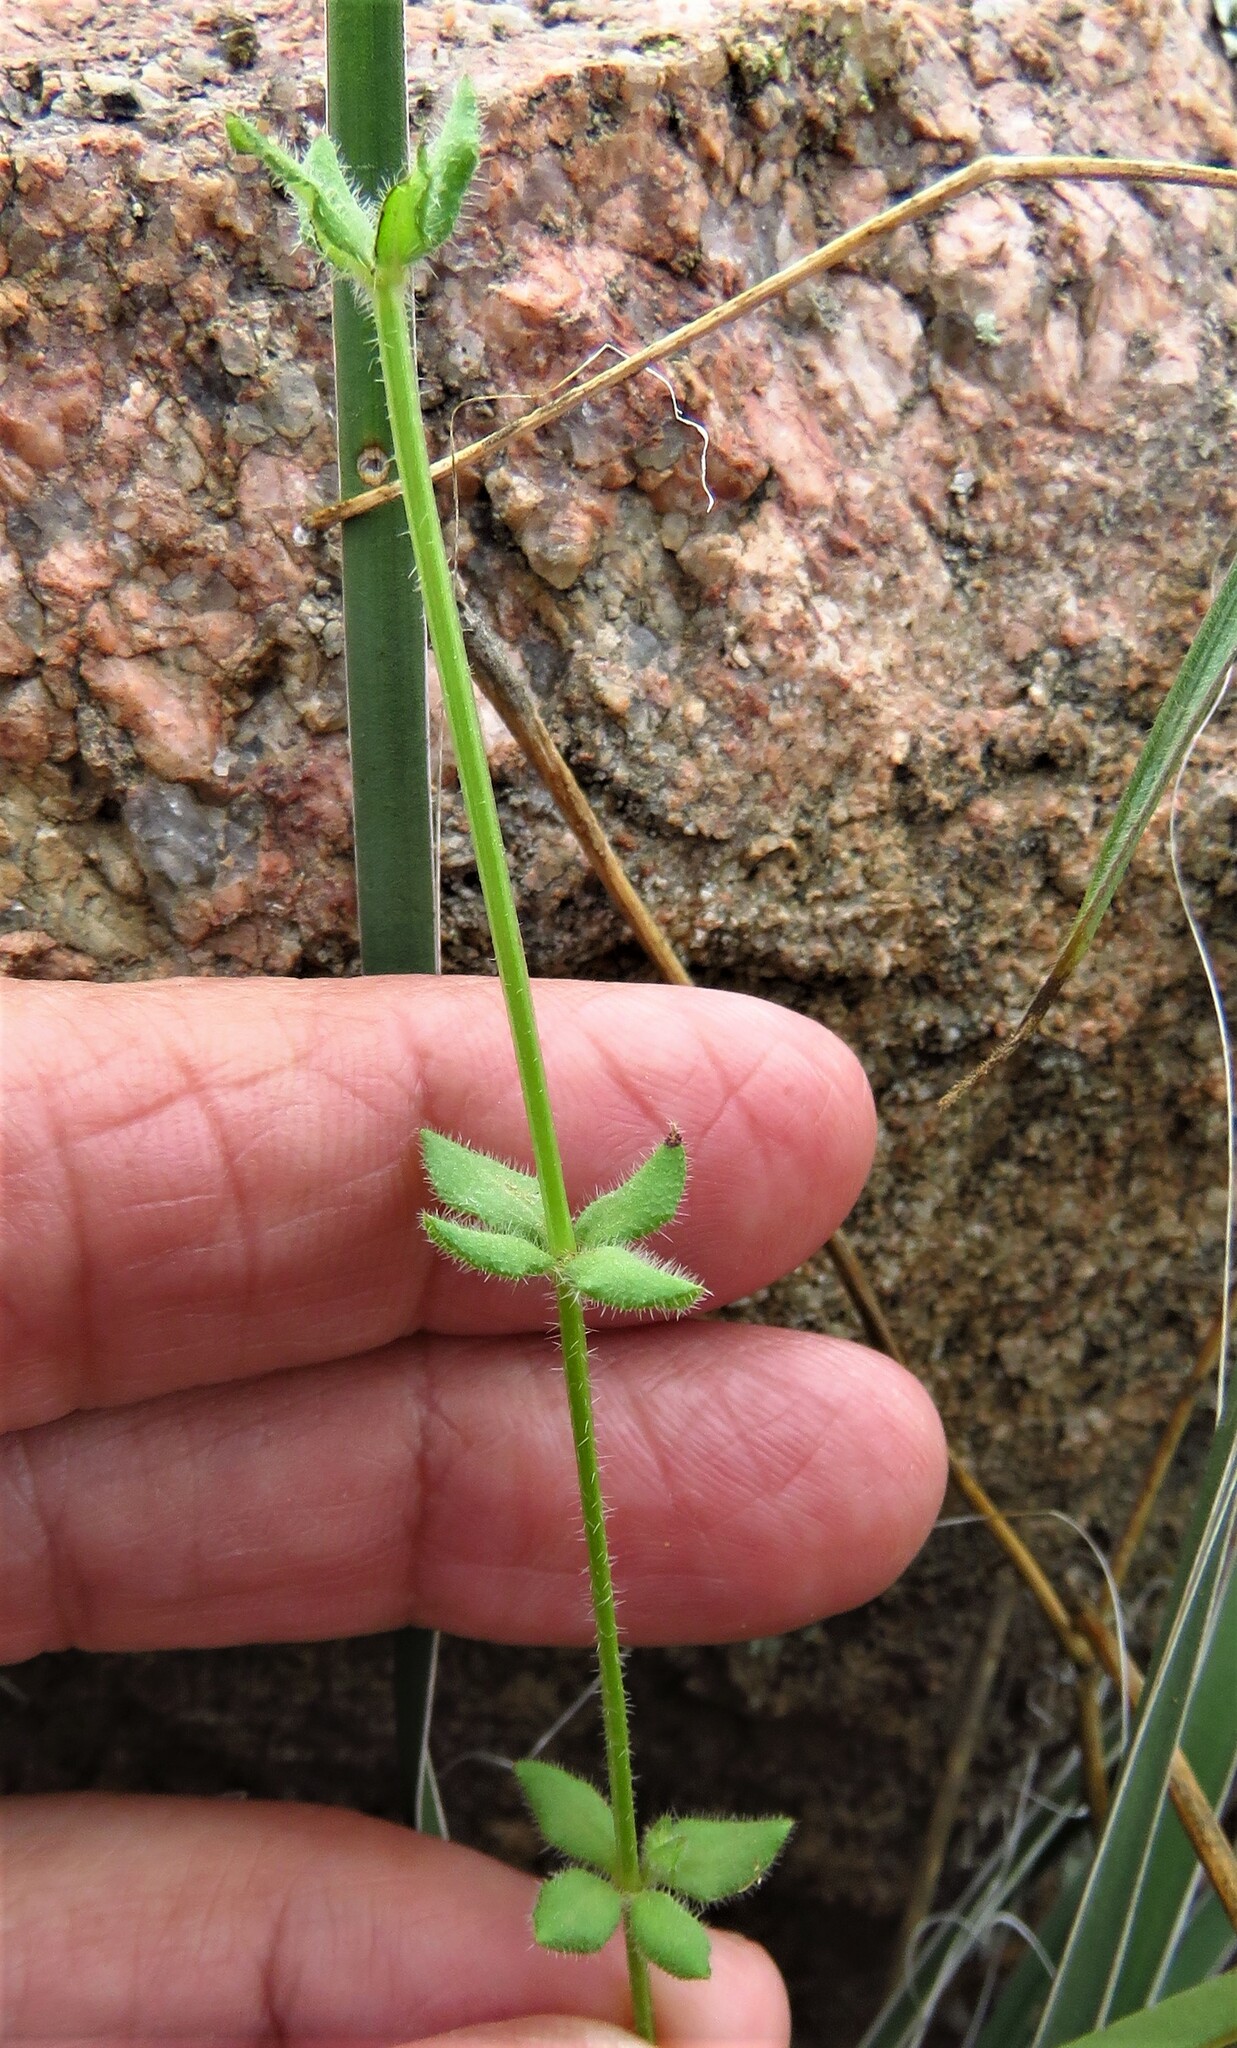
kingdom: Plantae
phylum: Tracheophyta
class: Magnoliopsida
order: Gentianales
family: Rubiaceae
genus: Galium
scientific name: Galium virgatum
